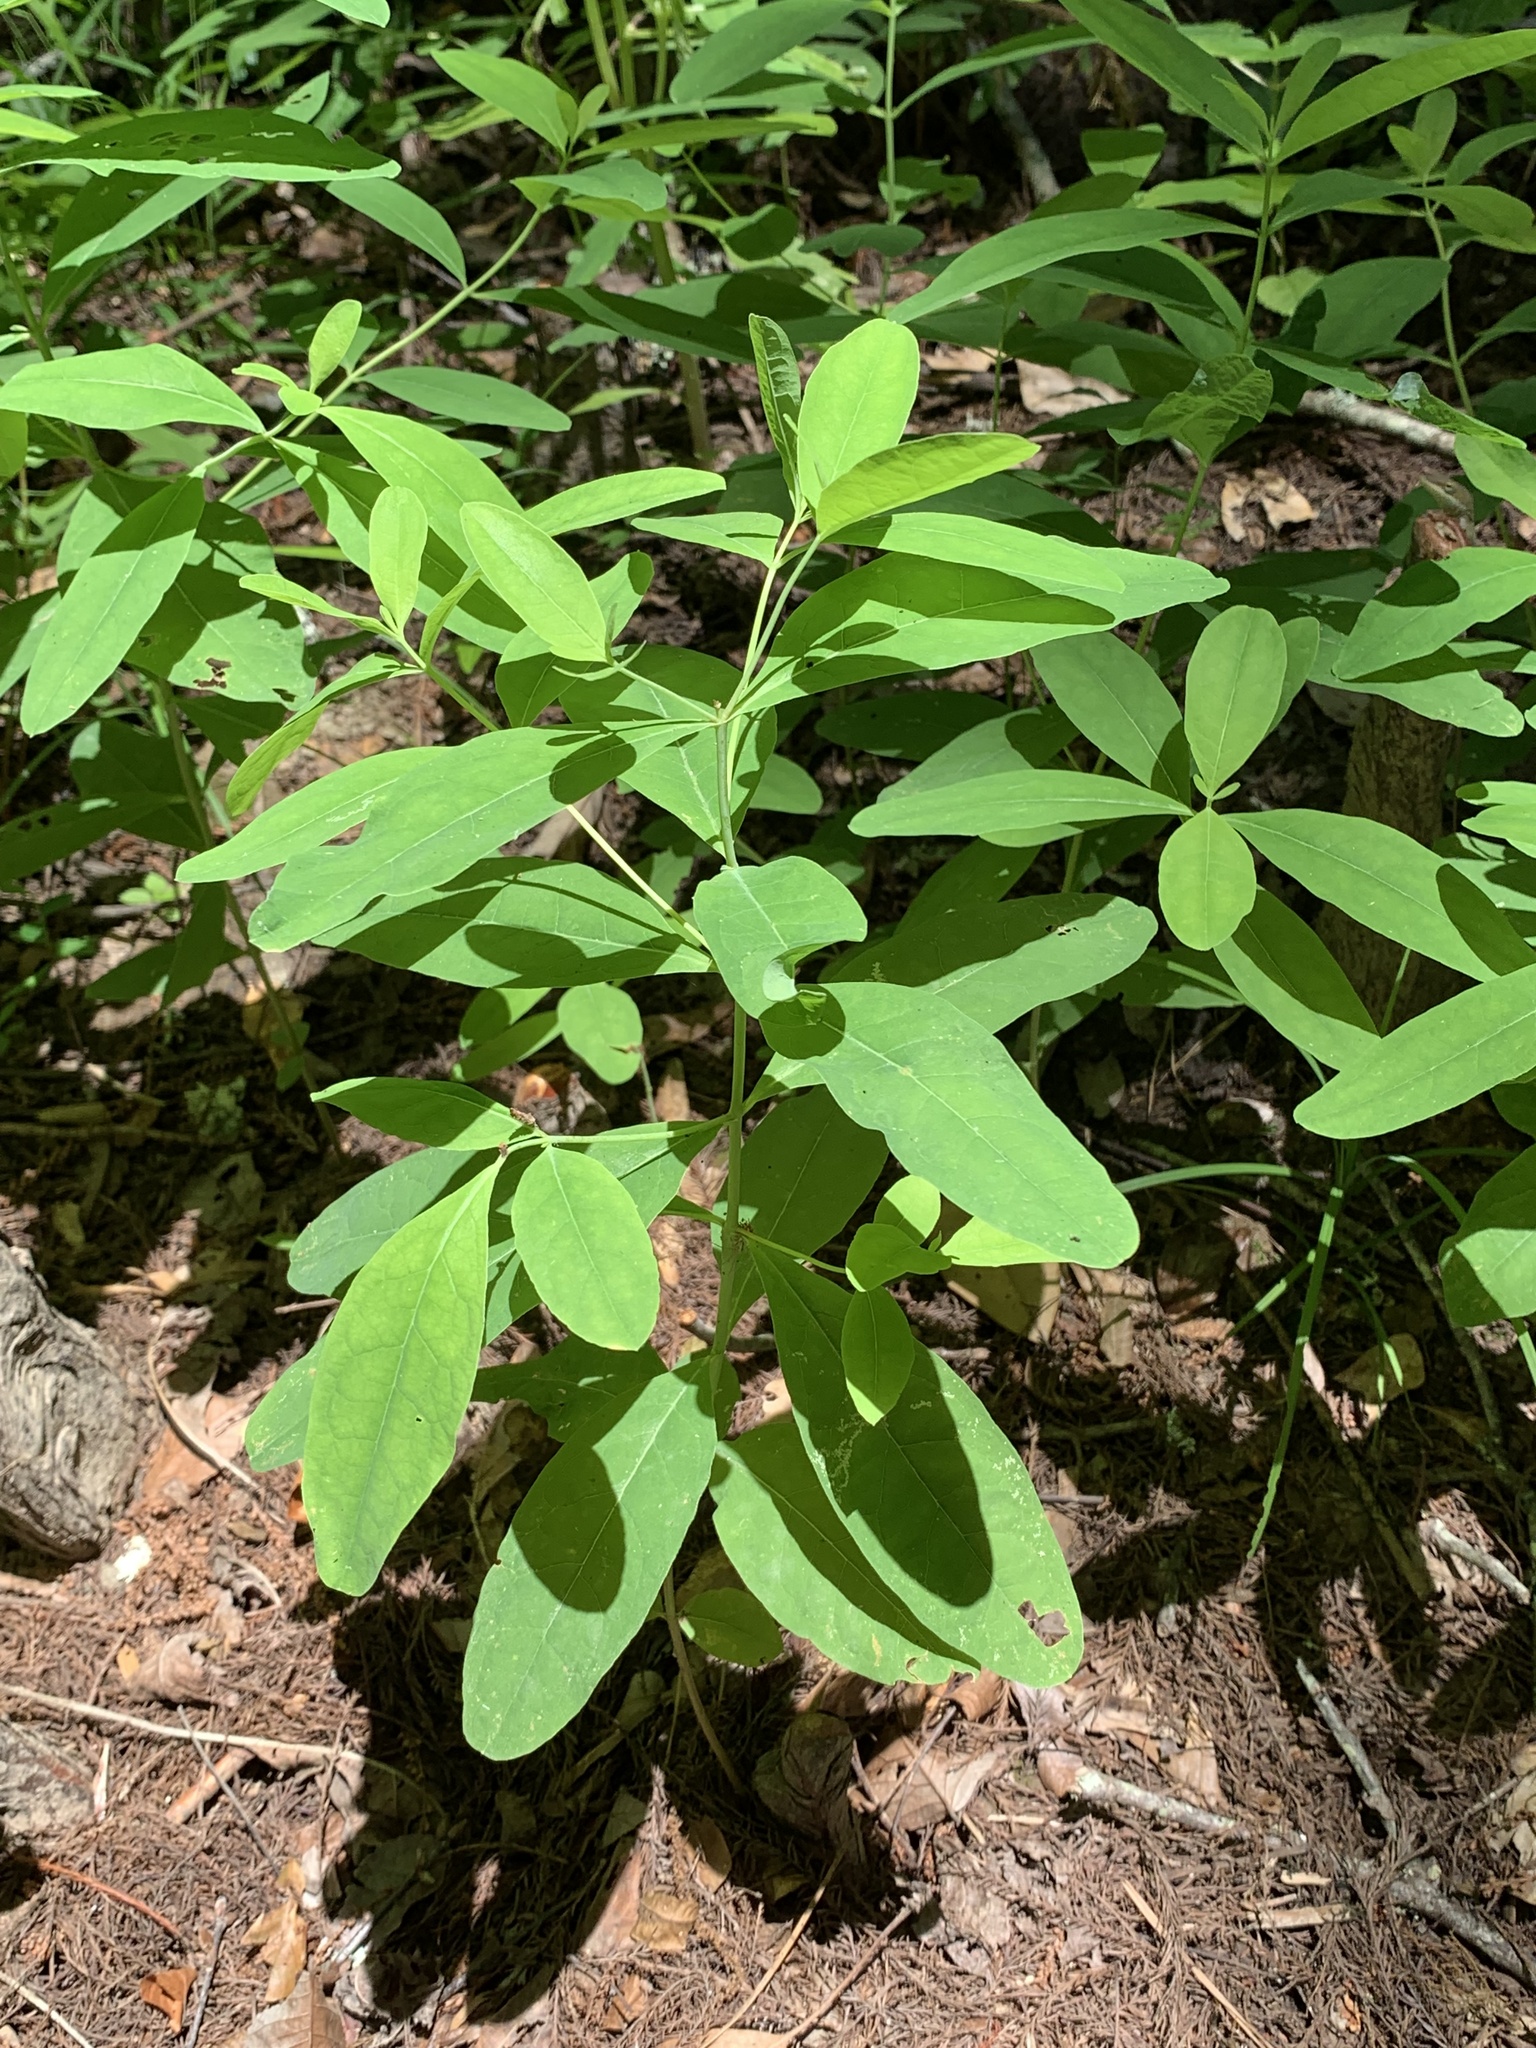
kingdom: Plantae
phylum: Tracheophyta
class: Magnoliopsida
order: Malpighiales
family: Hypericaceae
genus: Triadenum
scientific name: Triadenum walteri
